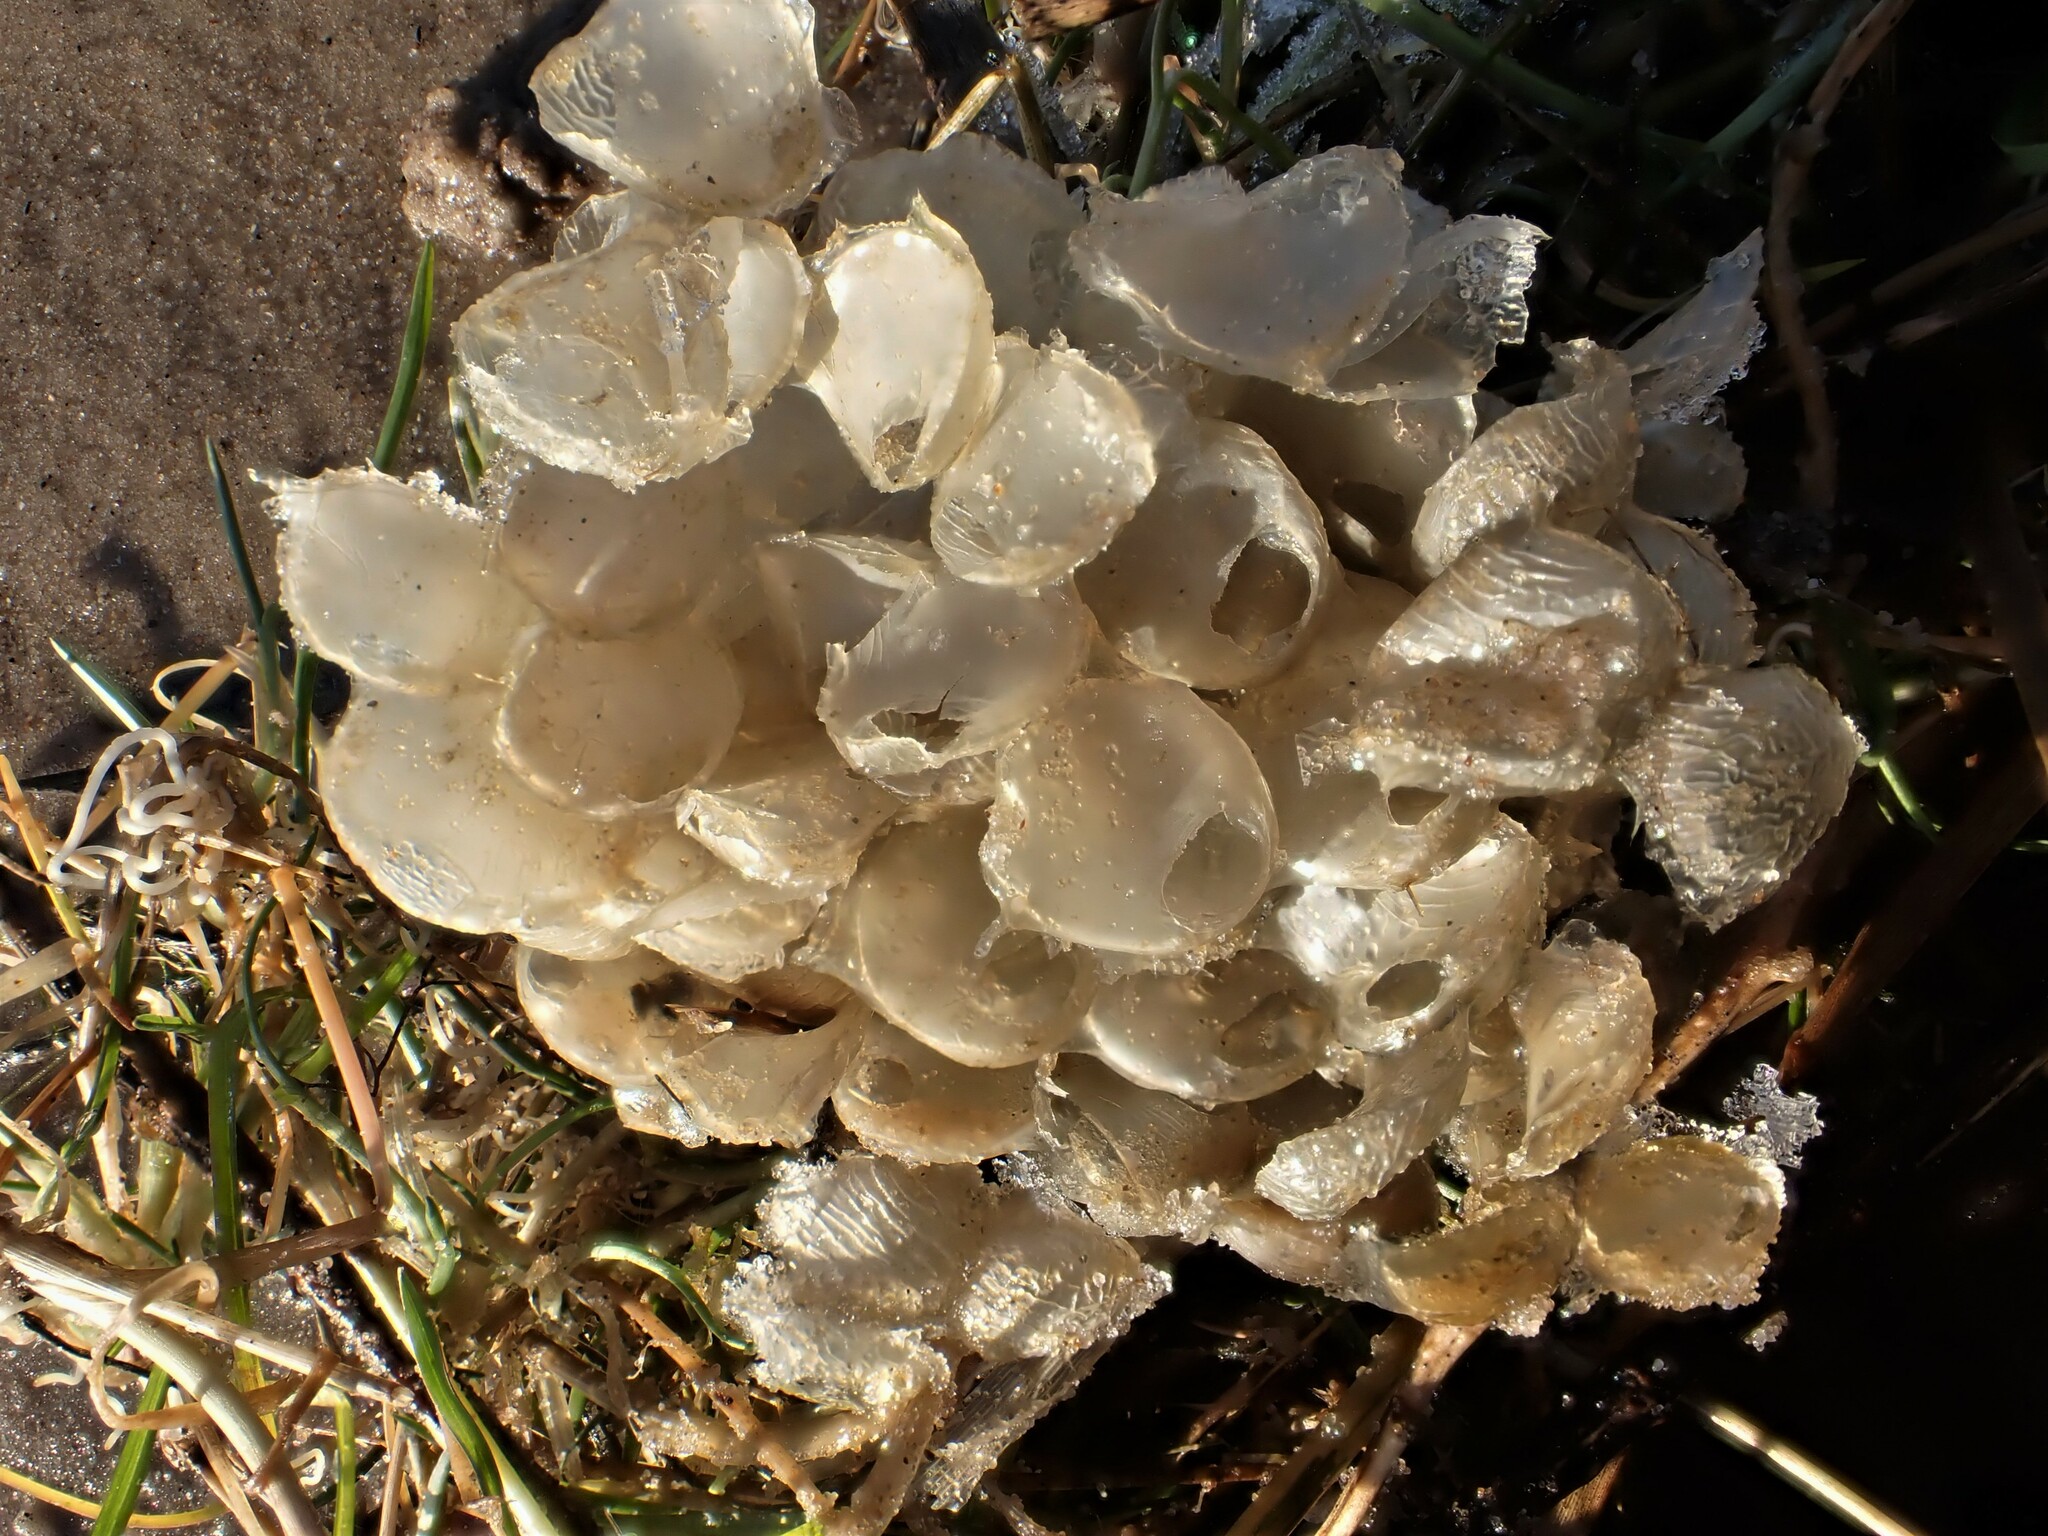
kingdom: Animalia
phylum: Mollusca
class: Gastropoda
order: Neogastropoda
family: Buccinidae
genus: Buccinum
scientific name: Buccinum undatum
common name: Common whelk
